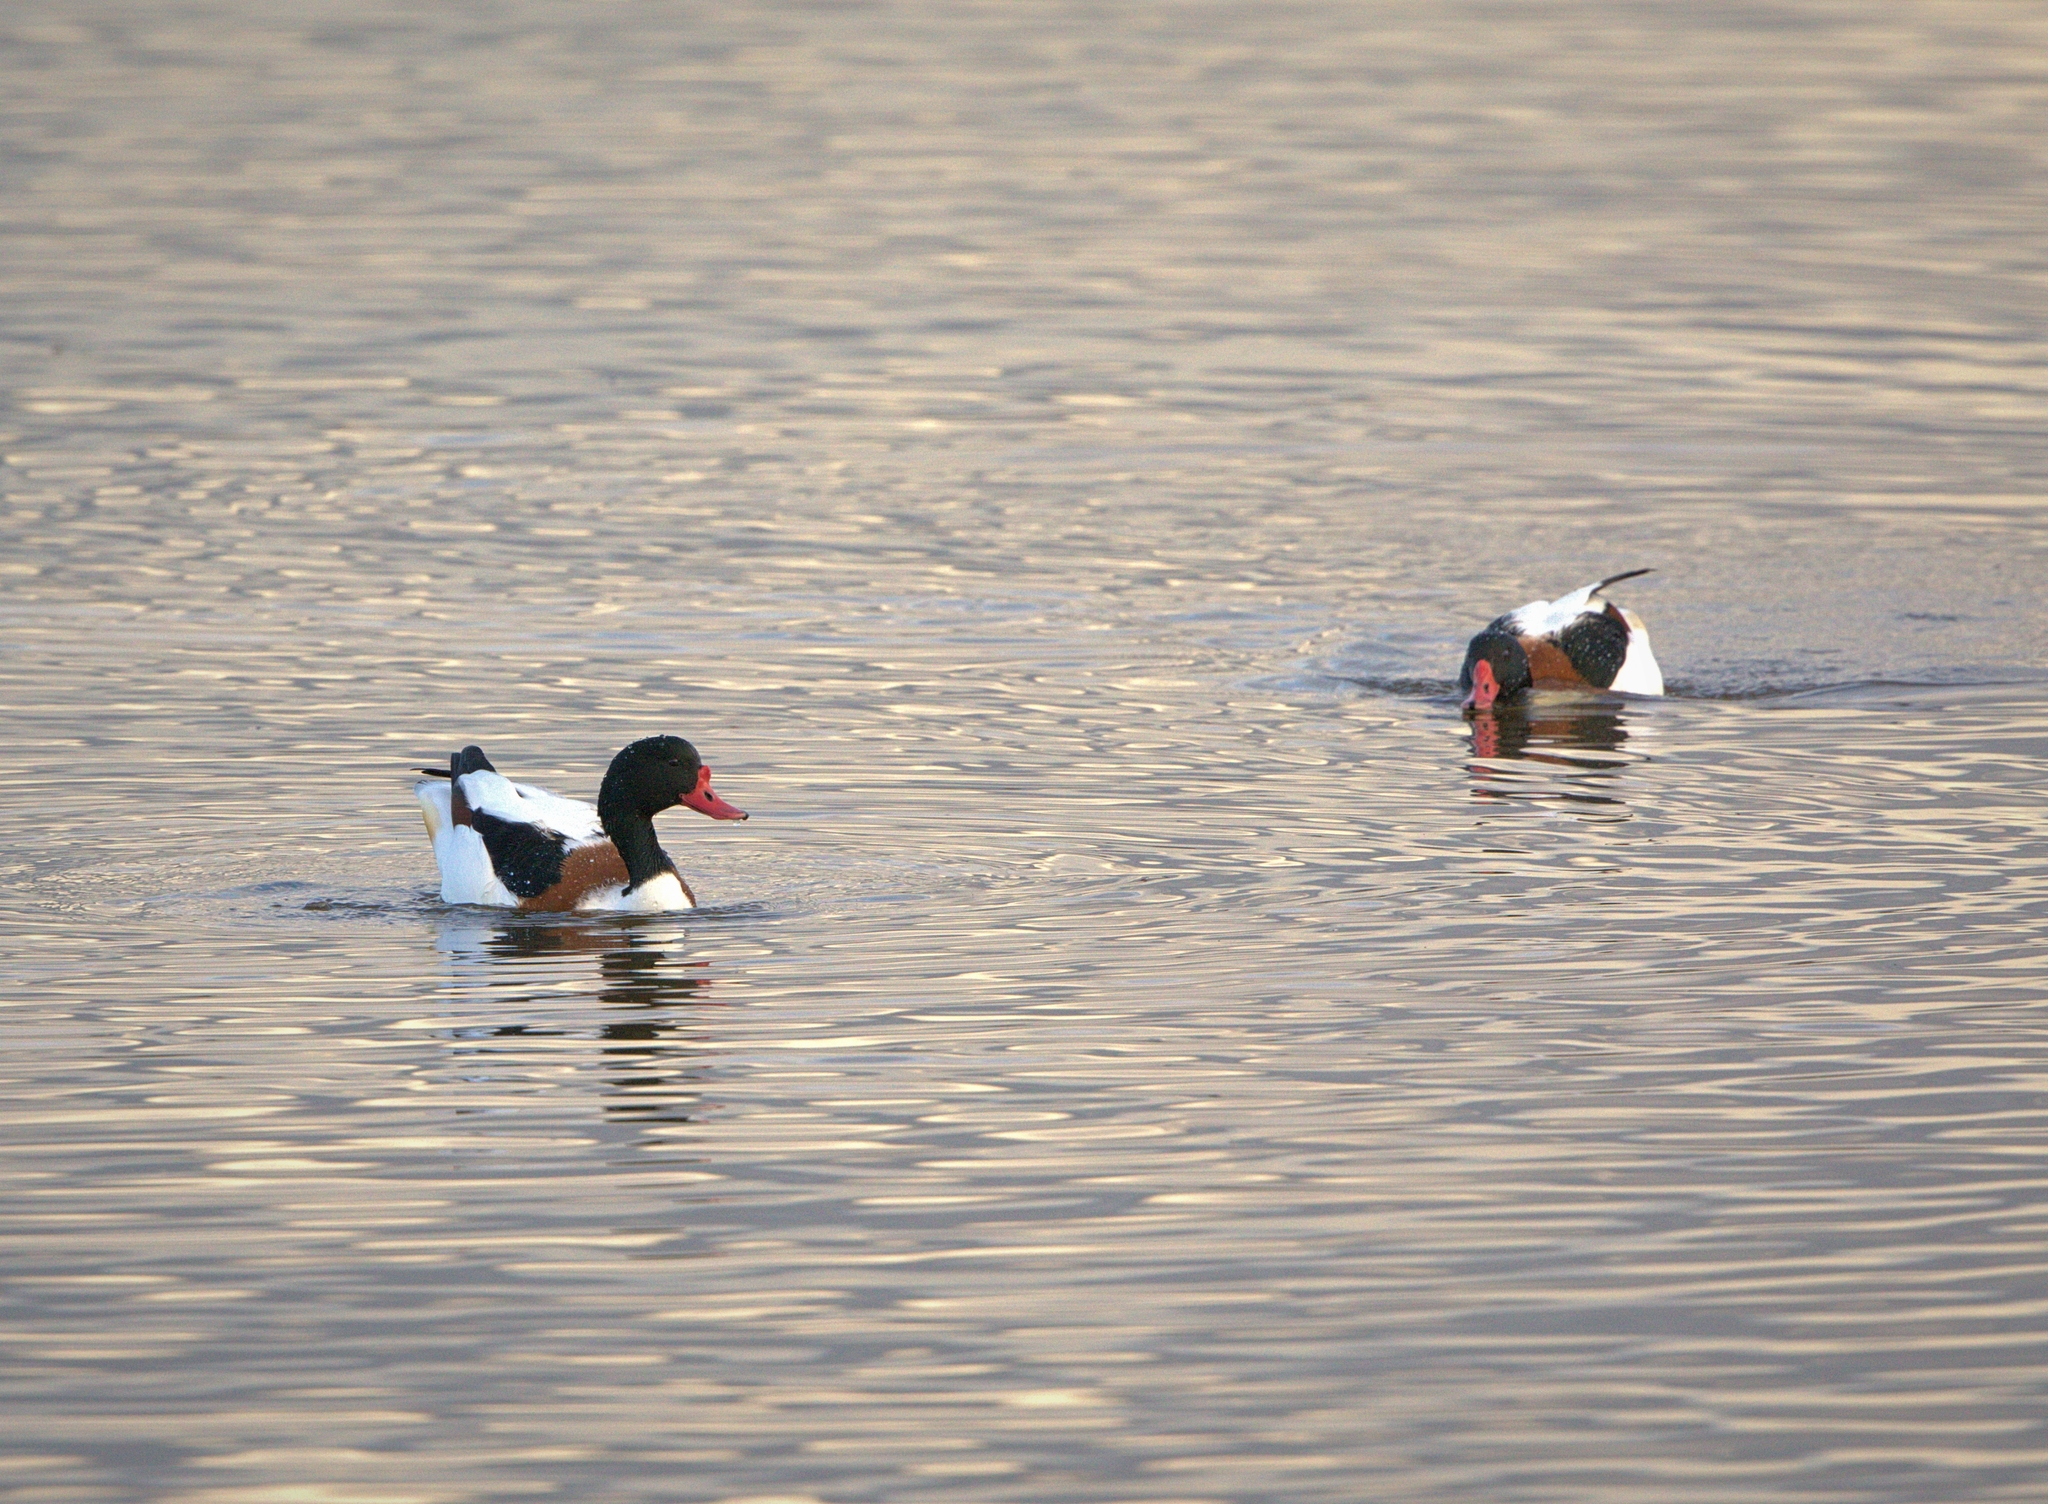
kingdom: Animalia
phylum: Chordata
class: Aves
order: Anseriformes
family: Anatidae
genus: Tadorna
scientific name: Tadorna tadorna
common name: Common shelduck
